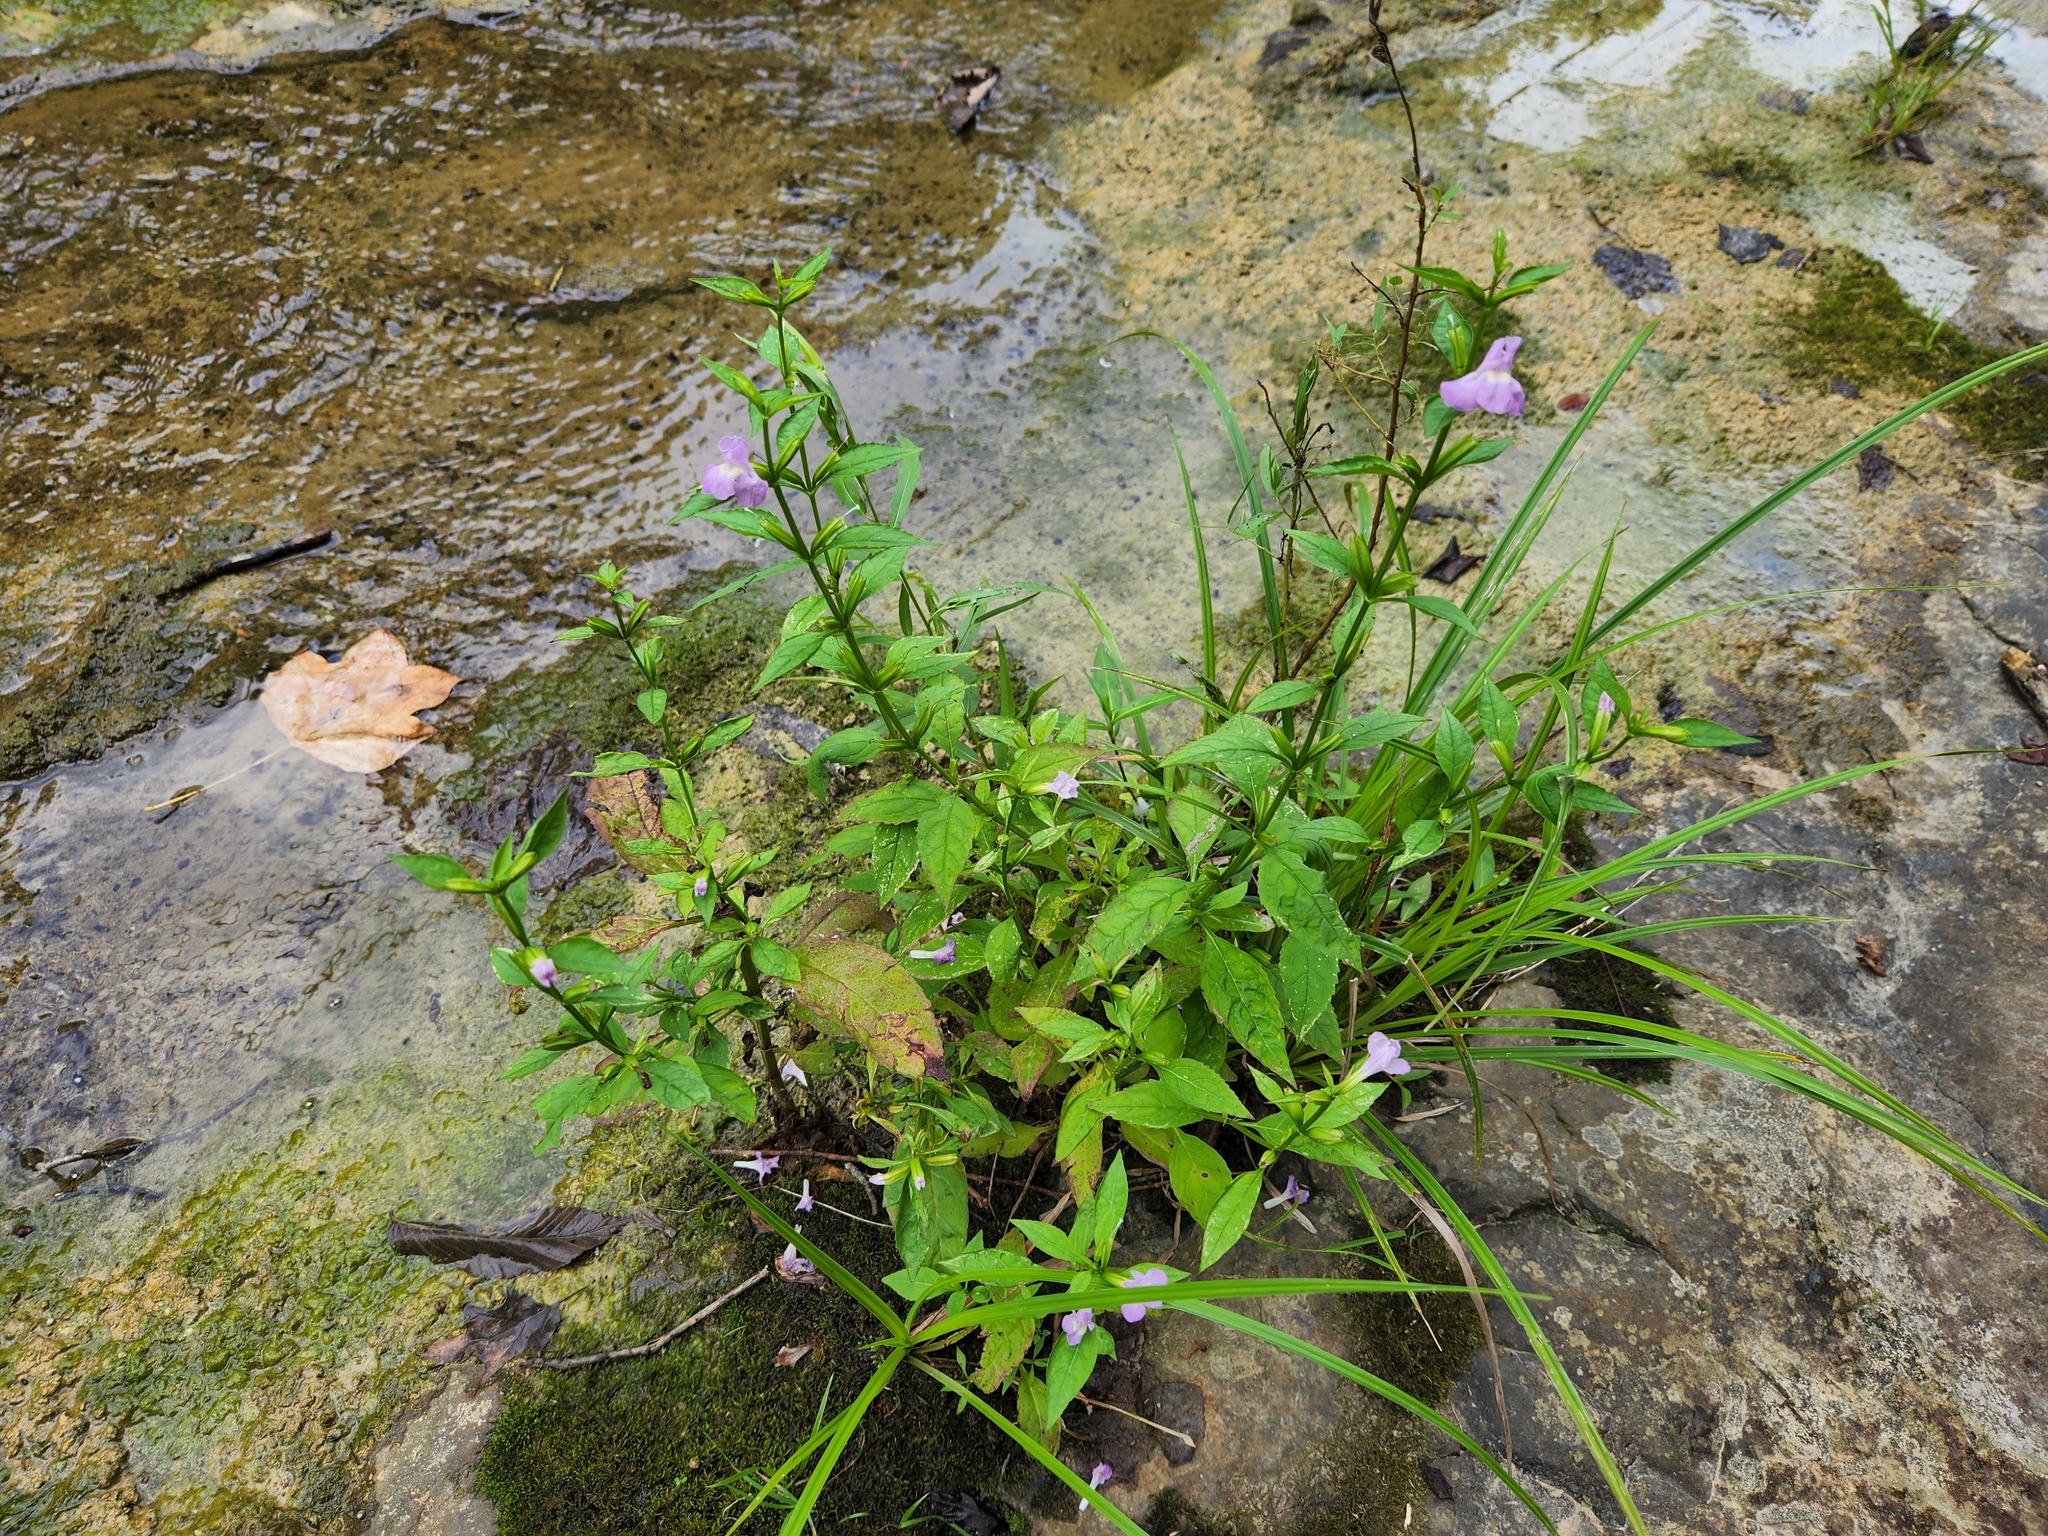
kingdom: Plantae
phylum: Tracheophyta
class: Magnoliopsida
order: Lamiales
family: Phrymaceae
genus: Mimulus
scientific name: Mimulus alatus
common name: Sharp-wing monkey-flower
